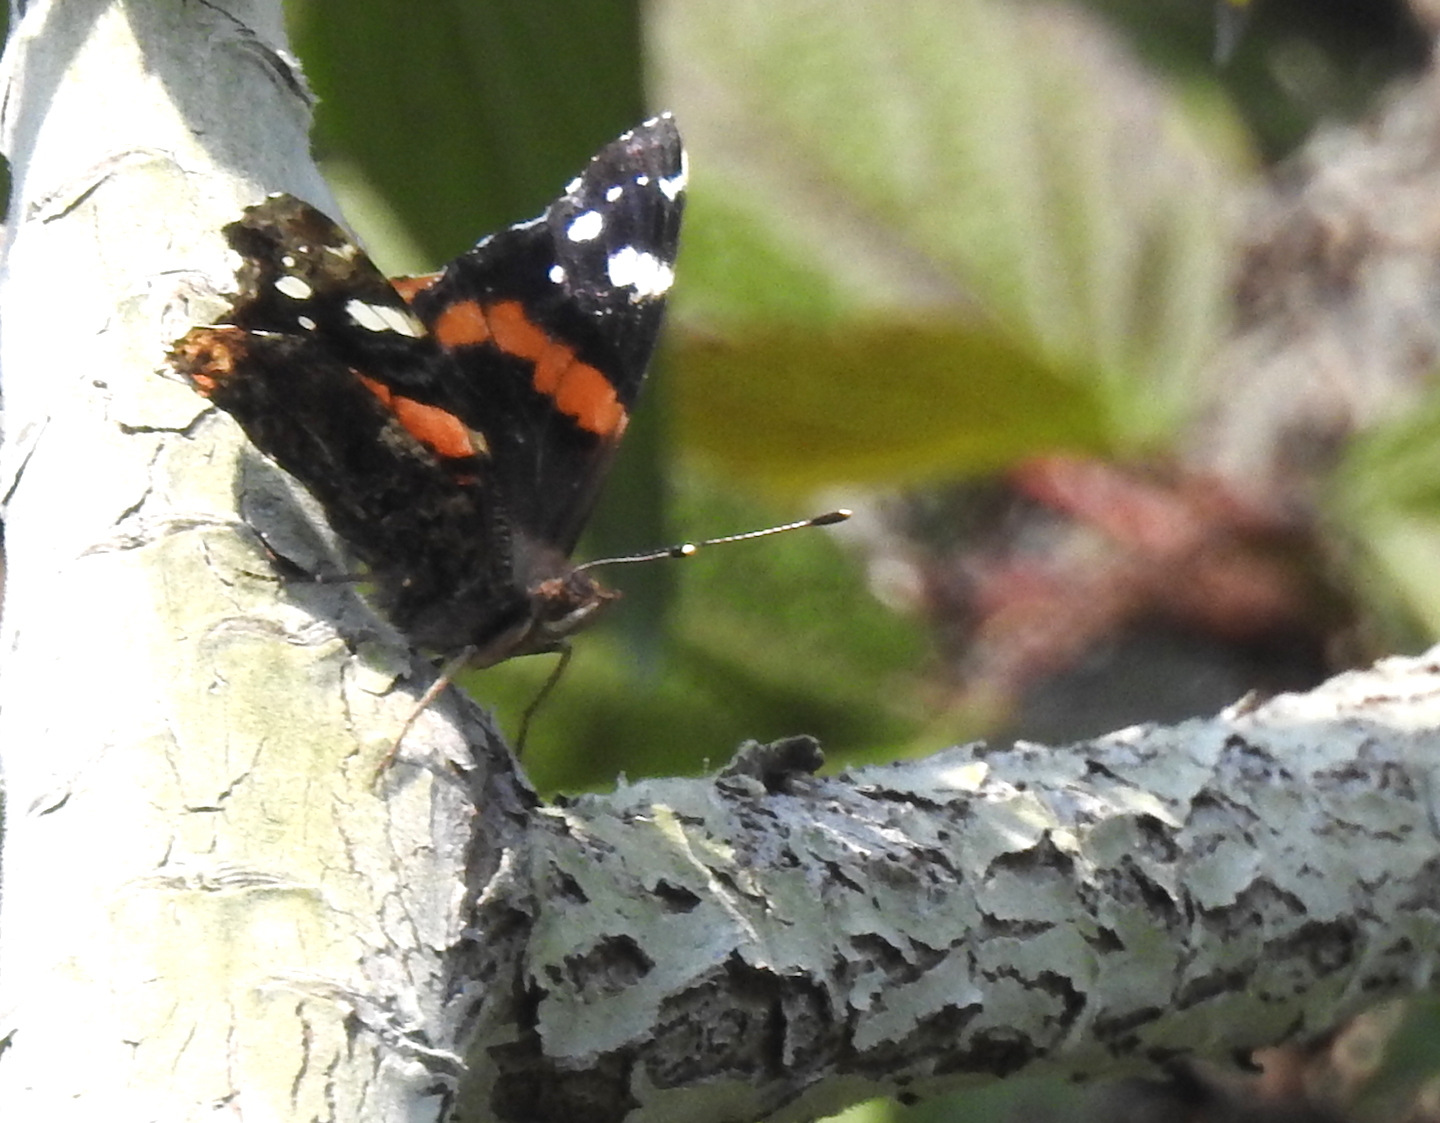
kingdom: Animalia
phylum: Arthropoda
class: Insecta
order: Lepidoptera
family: Nymphalidae
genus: Vanessa
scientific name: Vanessa atalanta
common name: Red admiral
